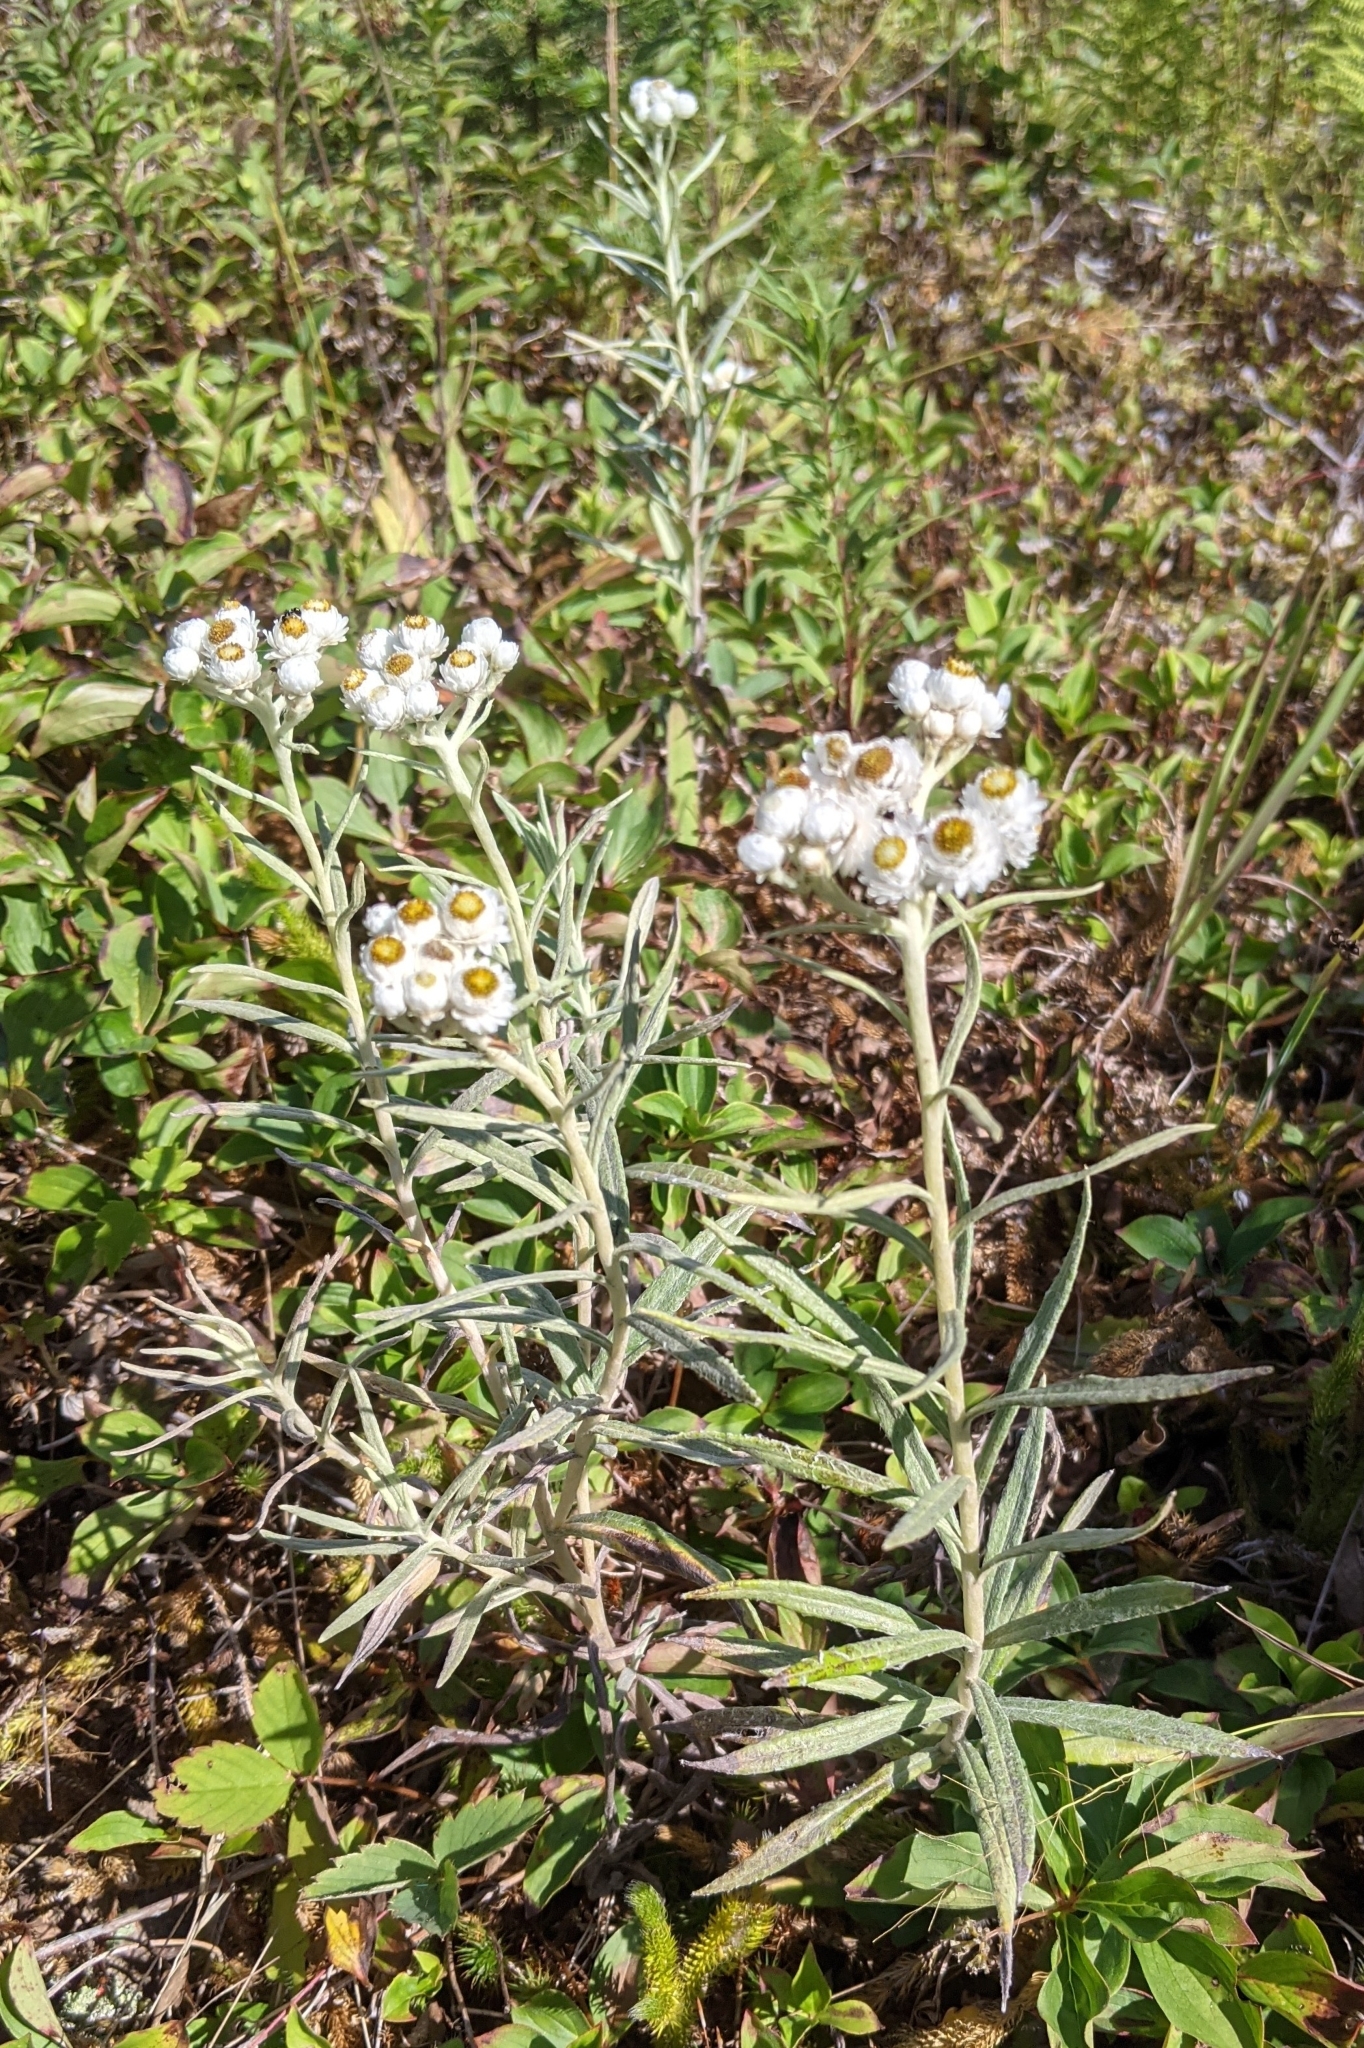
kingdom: Plantae
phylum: Tracheophyta
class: Magnoliopsida
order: Asterales
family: Asteraceae
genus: Anaphalis
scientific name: Anaphalis margaritacea
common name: Pearly everlasting
